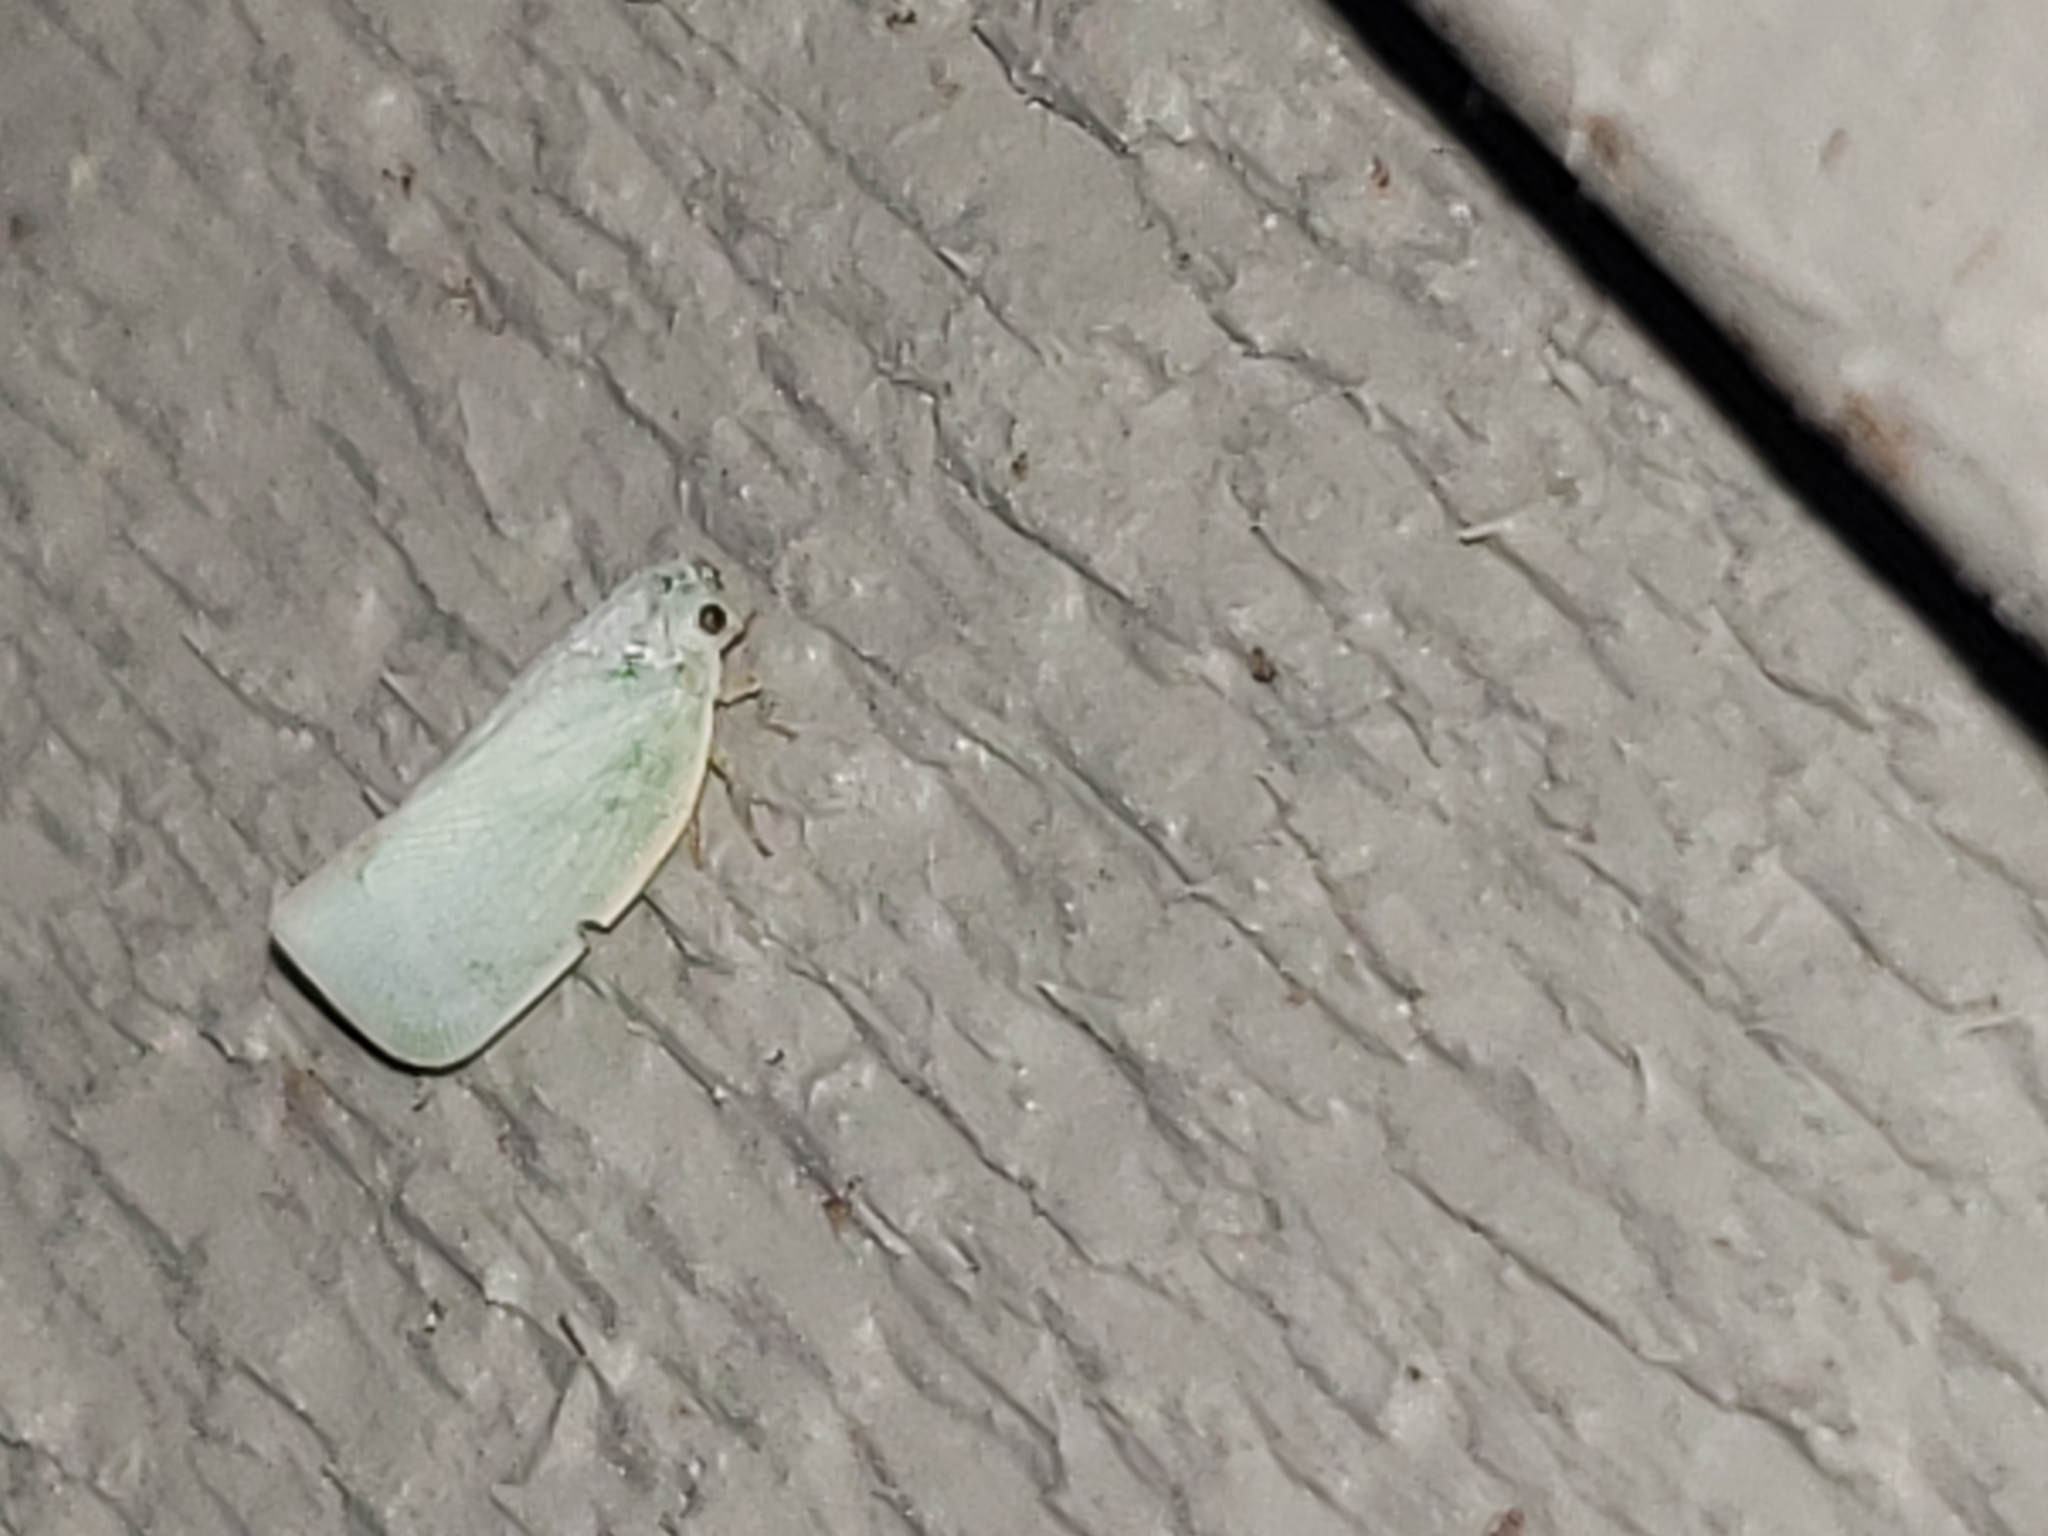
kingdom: Animalia
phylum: Arthropoda
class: Insecta
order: Hemiptera
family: Flatidae
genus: Flatormenis
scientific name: Flatormenis proxima
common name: Northern flatid planthopper
